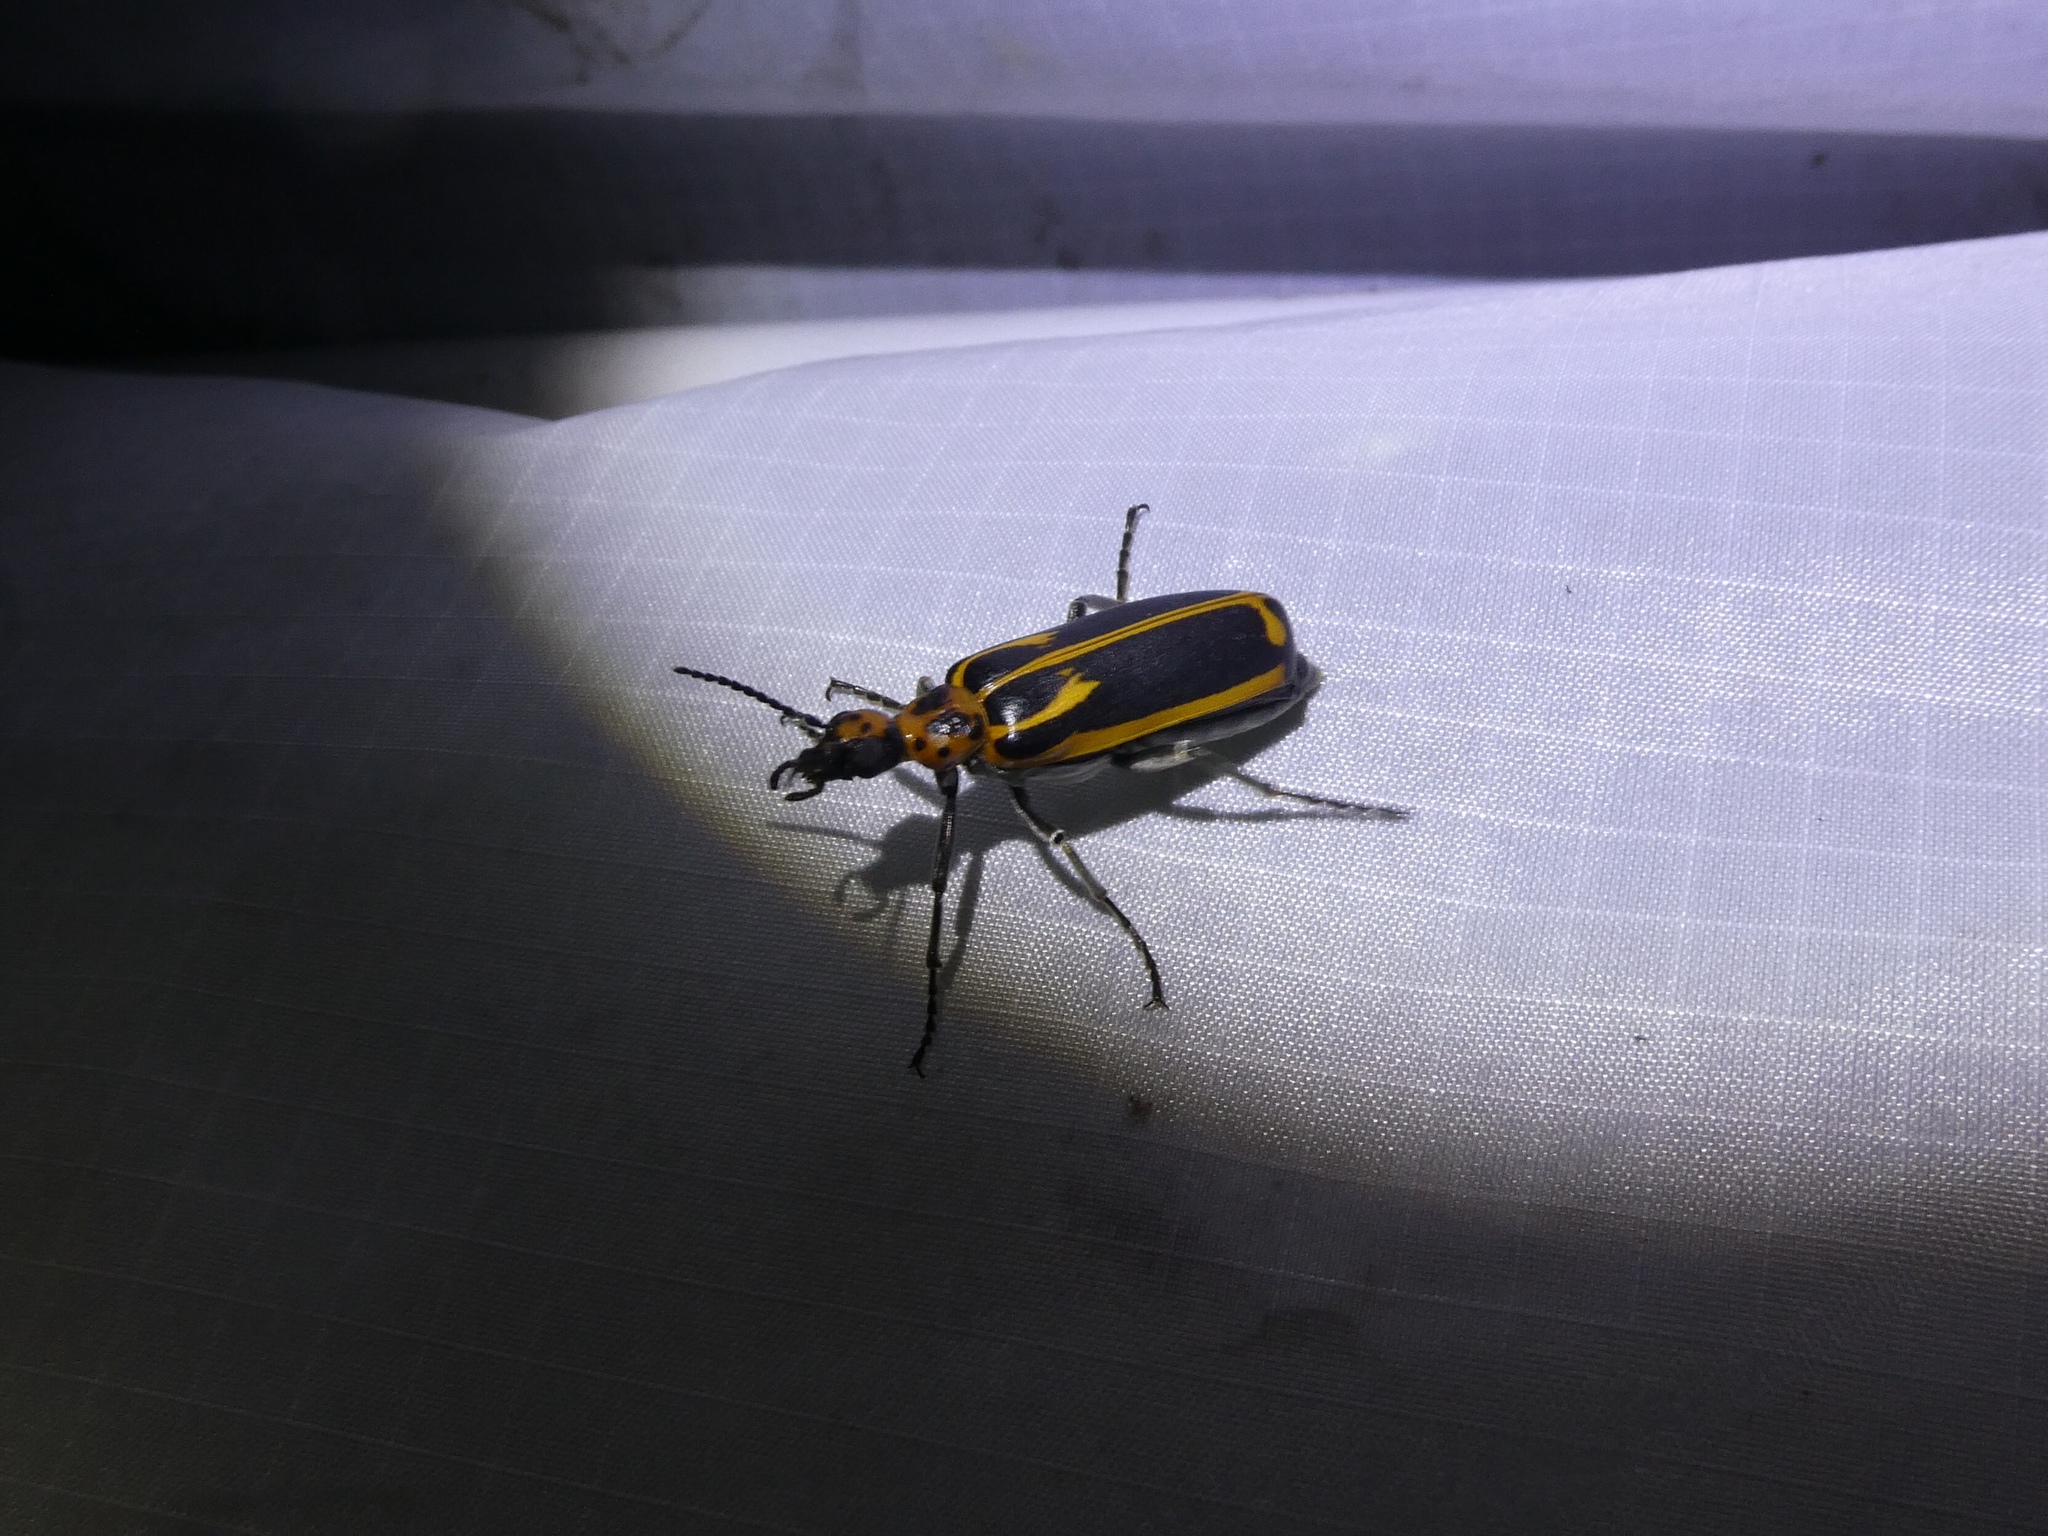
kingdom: Animalia
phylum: Arthropoda
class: Insecta
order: Coleoptera
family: Meloidae
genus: Pyrota
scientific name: Pyrota insulata
